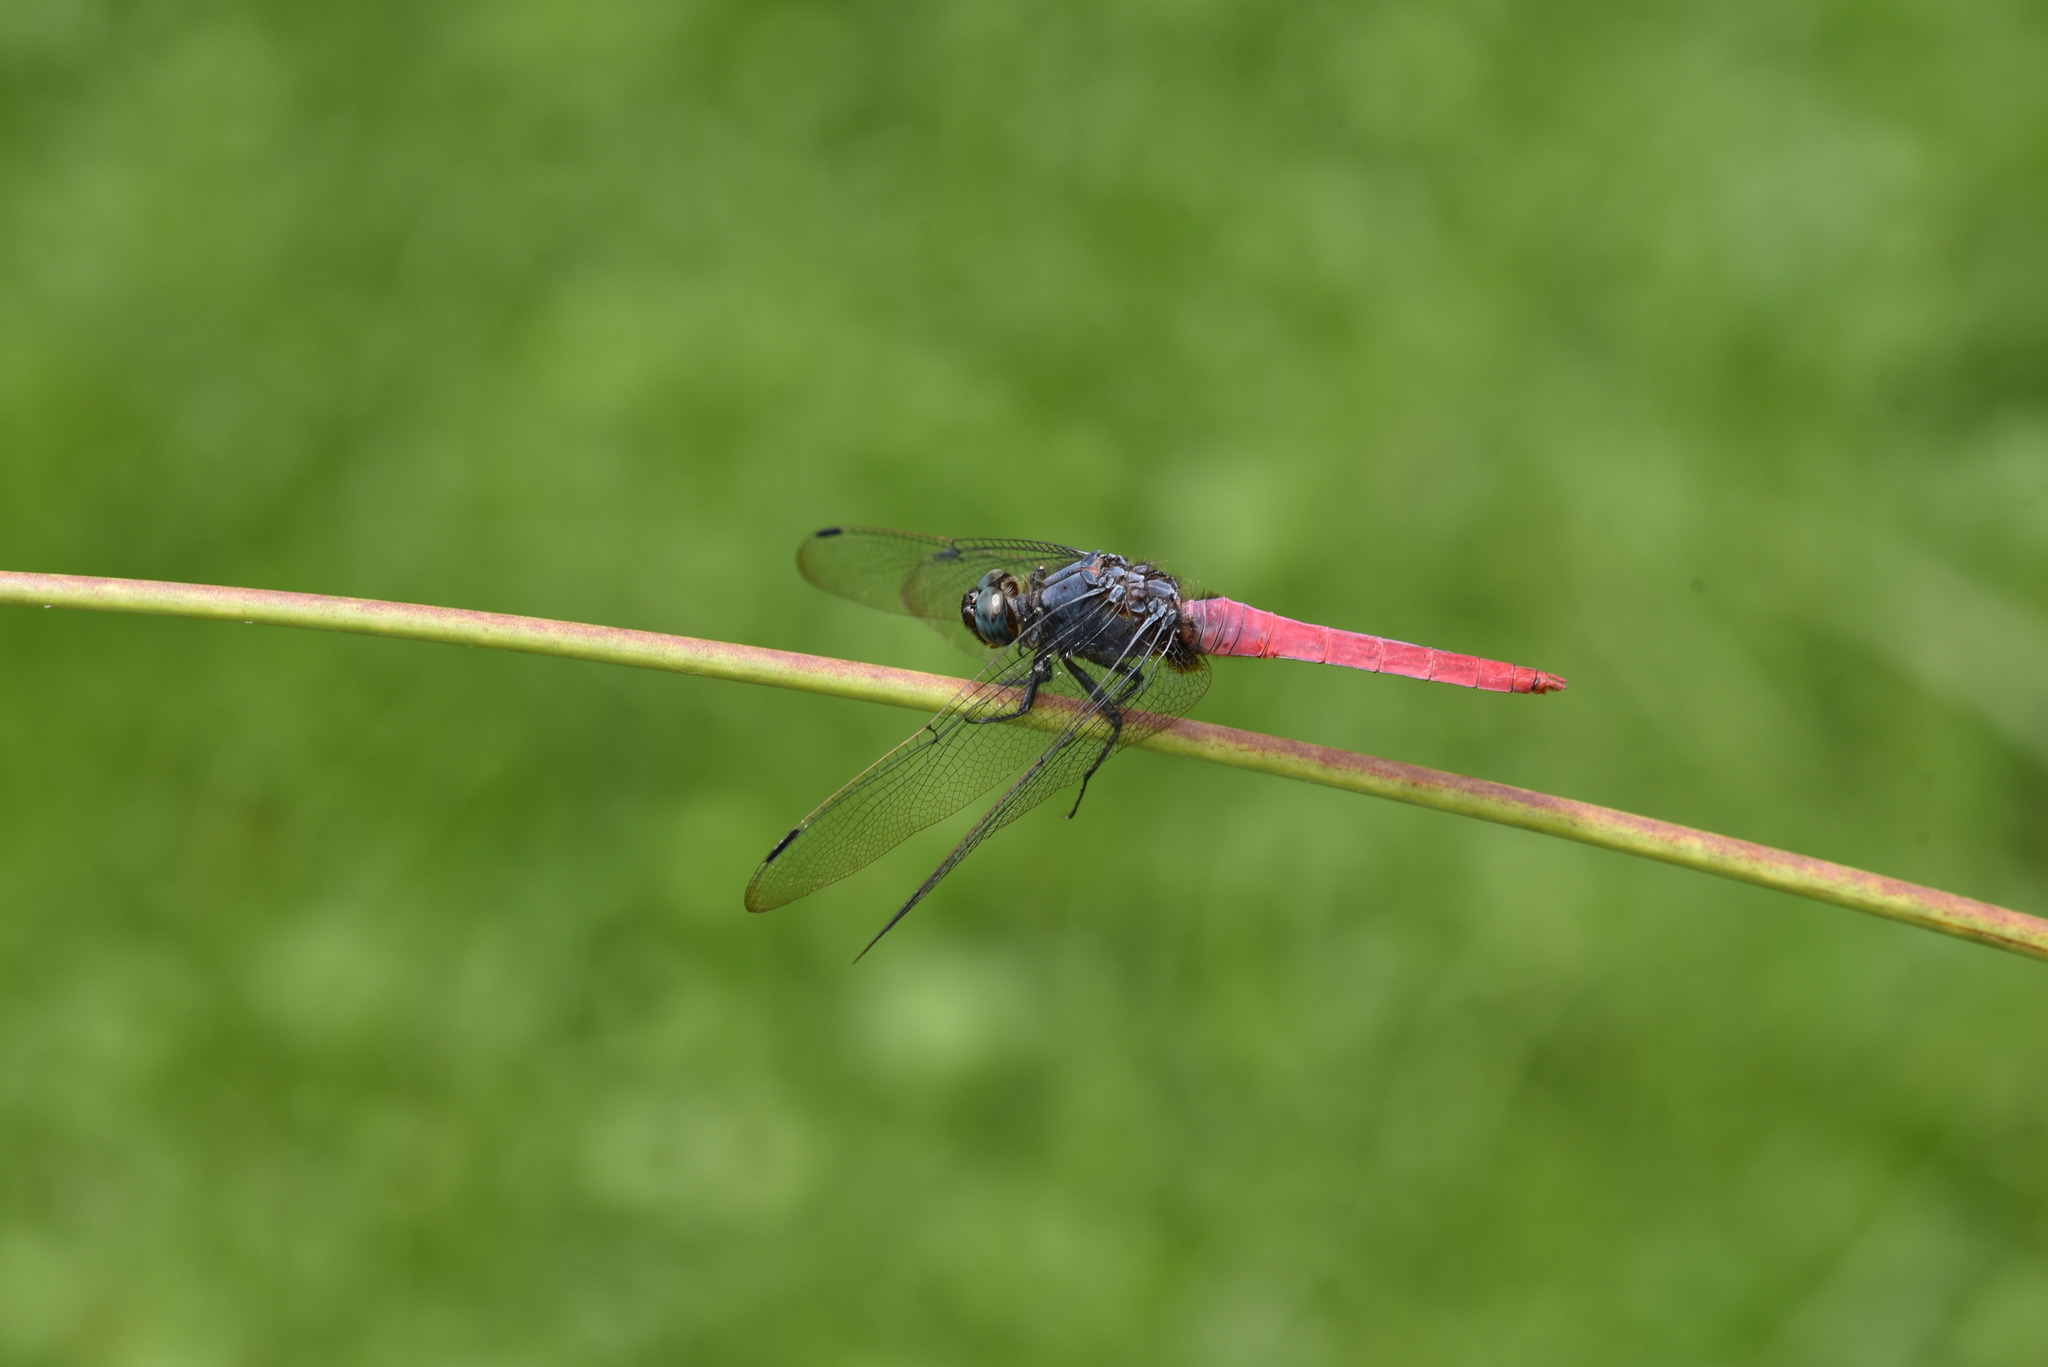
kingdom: Animalia
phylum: Arthropoda
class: Insecta
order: Odonata
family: Libellulidae
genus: Orthetrum
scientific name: Orthetrum pruinosum
